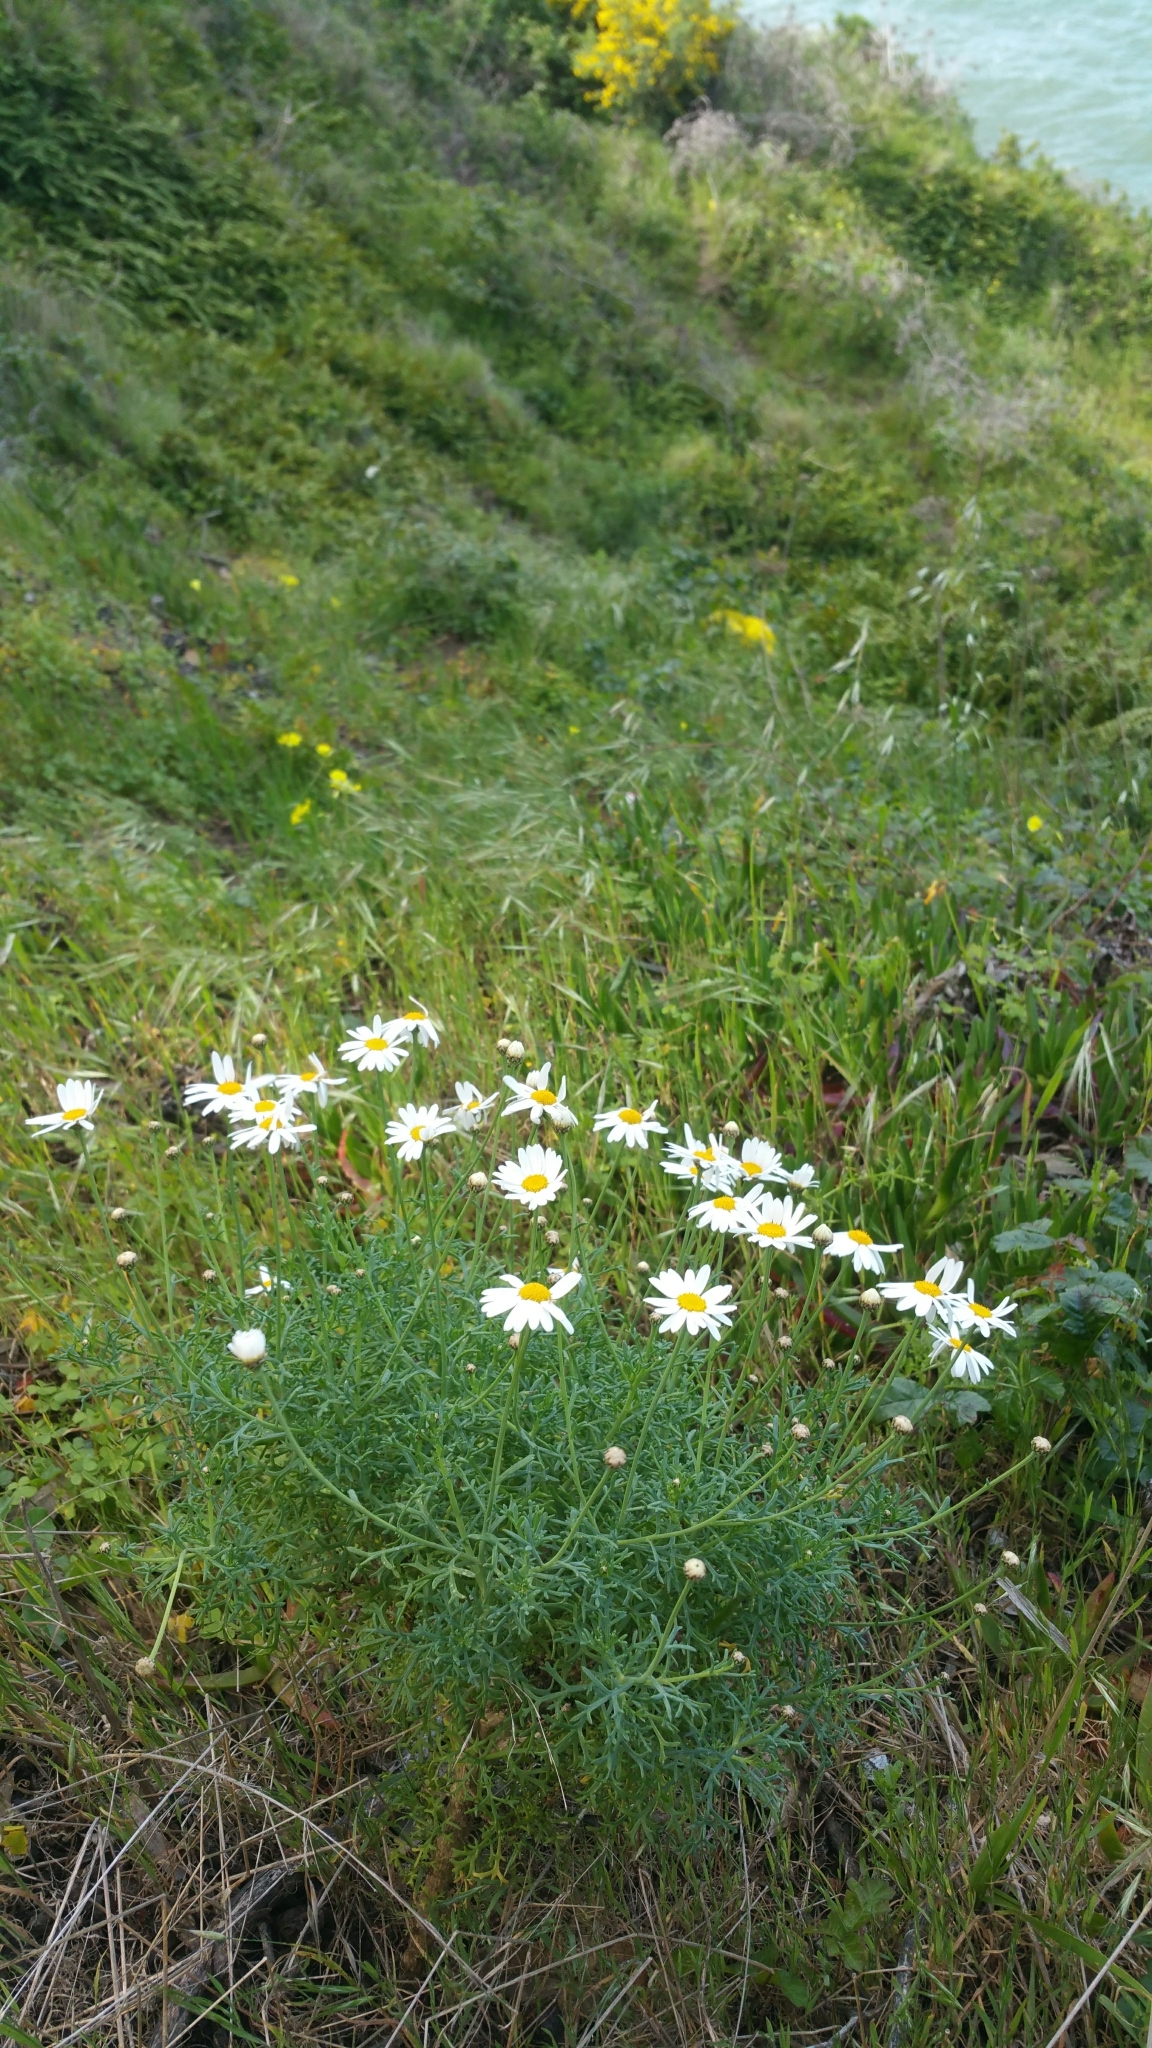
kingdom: Plantae
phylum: Tracheophyta
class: Magnoliopsida
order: Asterales
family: Asteraceae
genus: Argyranthemum
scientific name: Argyranthemum foeniculaceum
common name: Canary island marguerite
